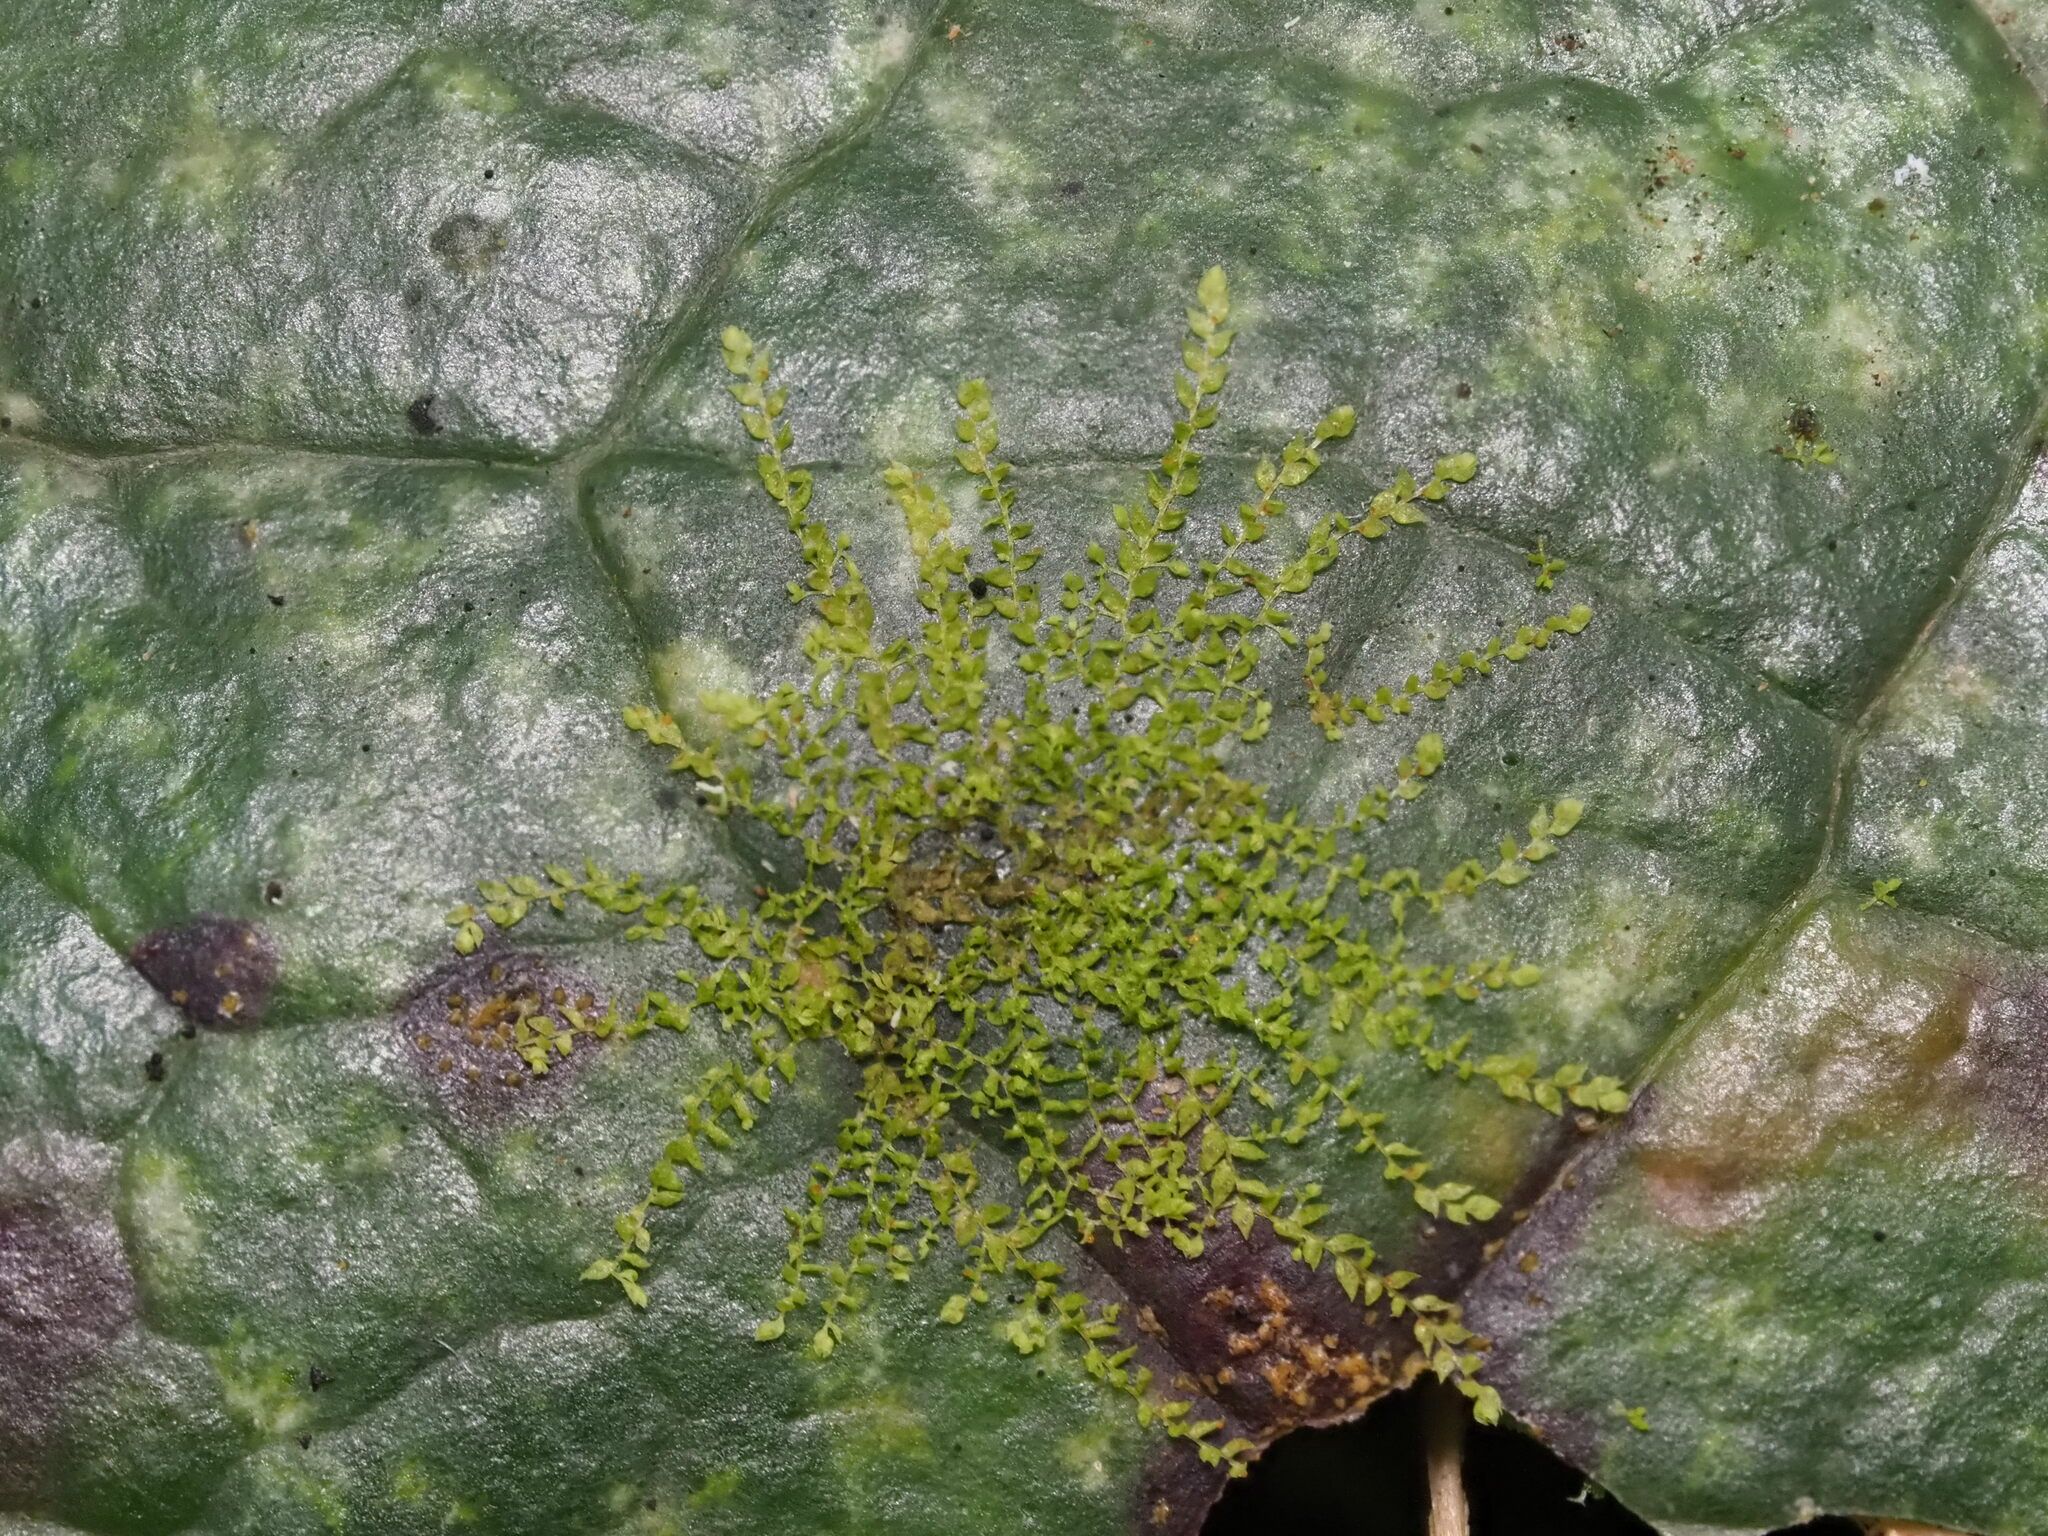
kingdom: Plantae
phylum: Marchantiophyta
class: Jungermanniopsida
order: Porellales
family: Lejeuneaceae
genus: Drepanolejeunea
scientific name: Drepanolejeunea anderssonii
